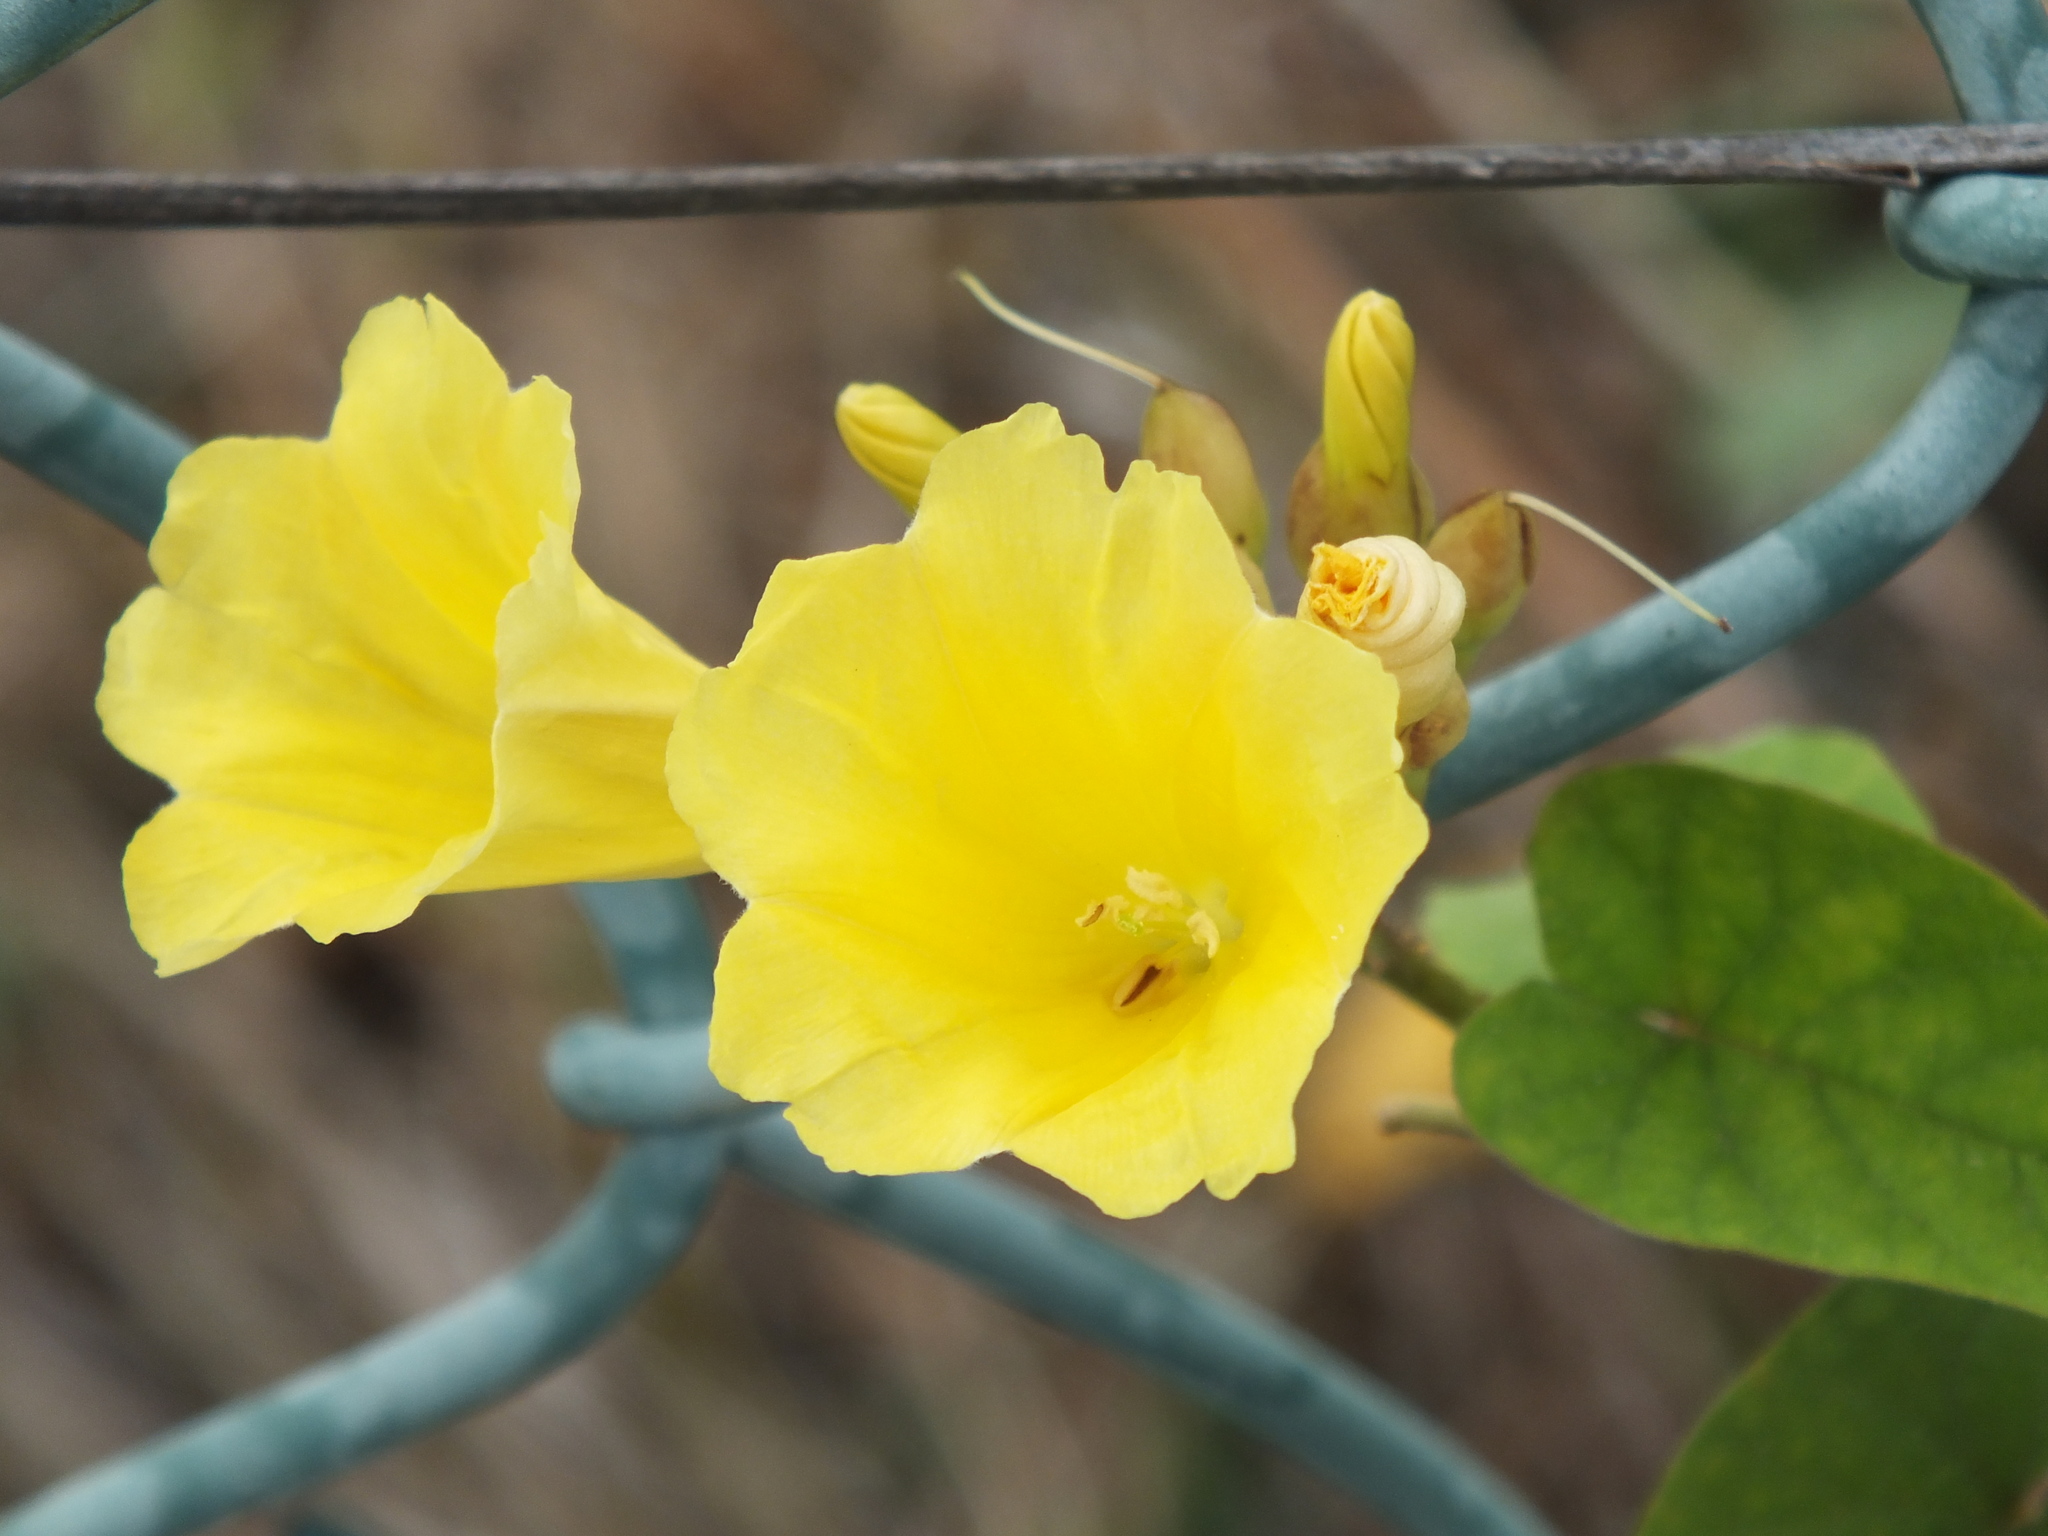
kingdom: Plantae
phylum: Tracheophyta
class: Magnoliopsida
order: Solanales
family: Convolvulaceae
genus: Camonea
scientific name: Camonea umbellata
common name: Hogvine
